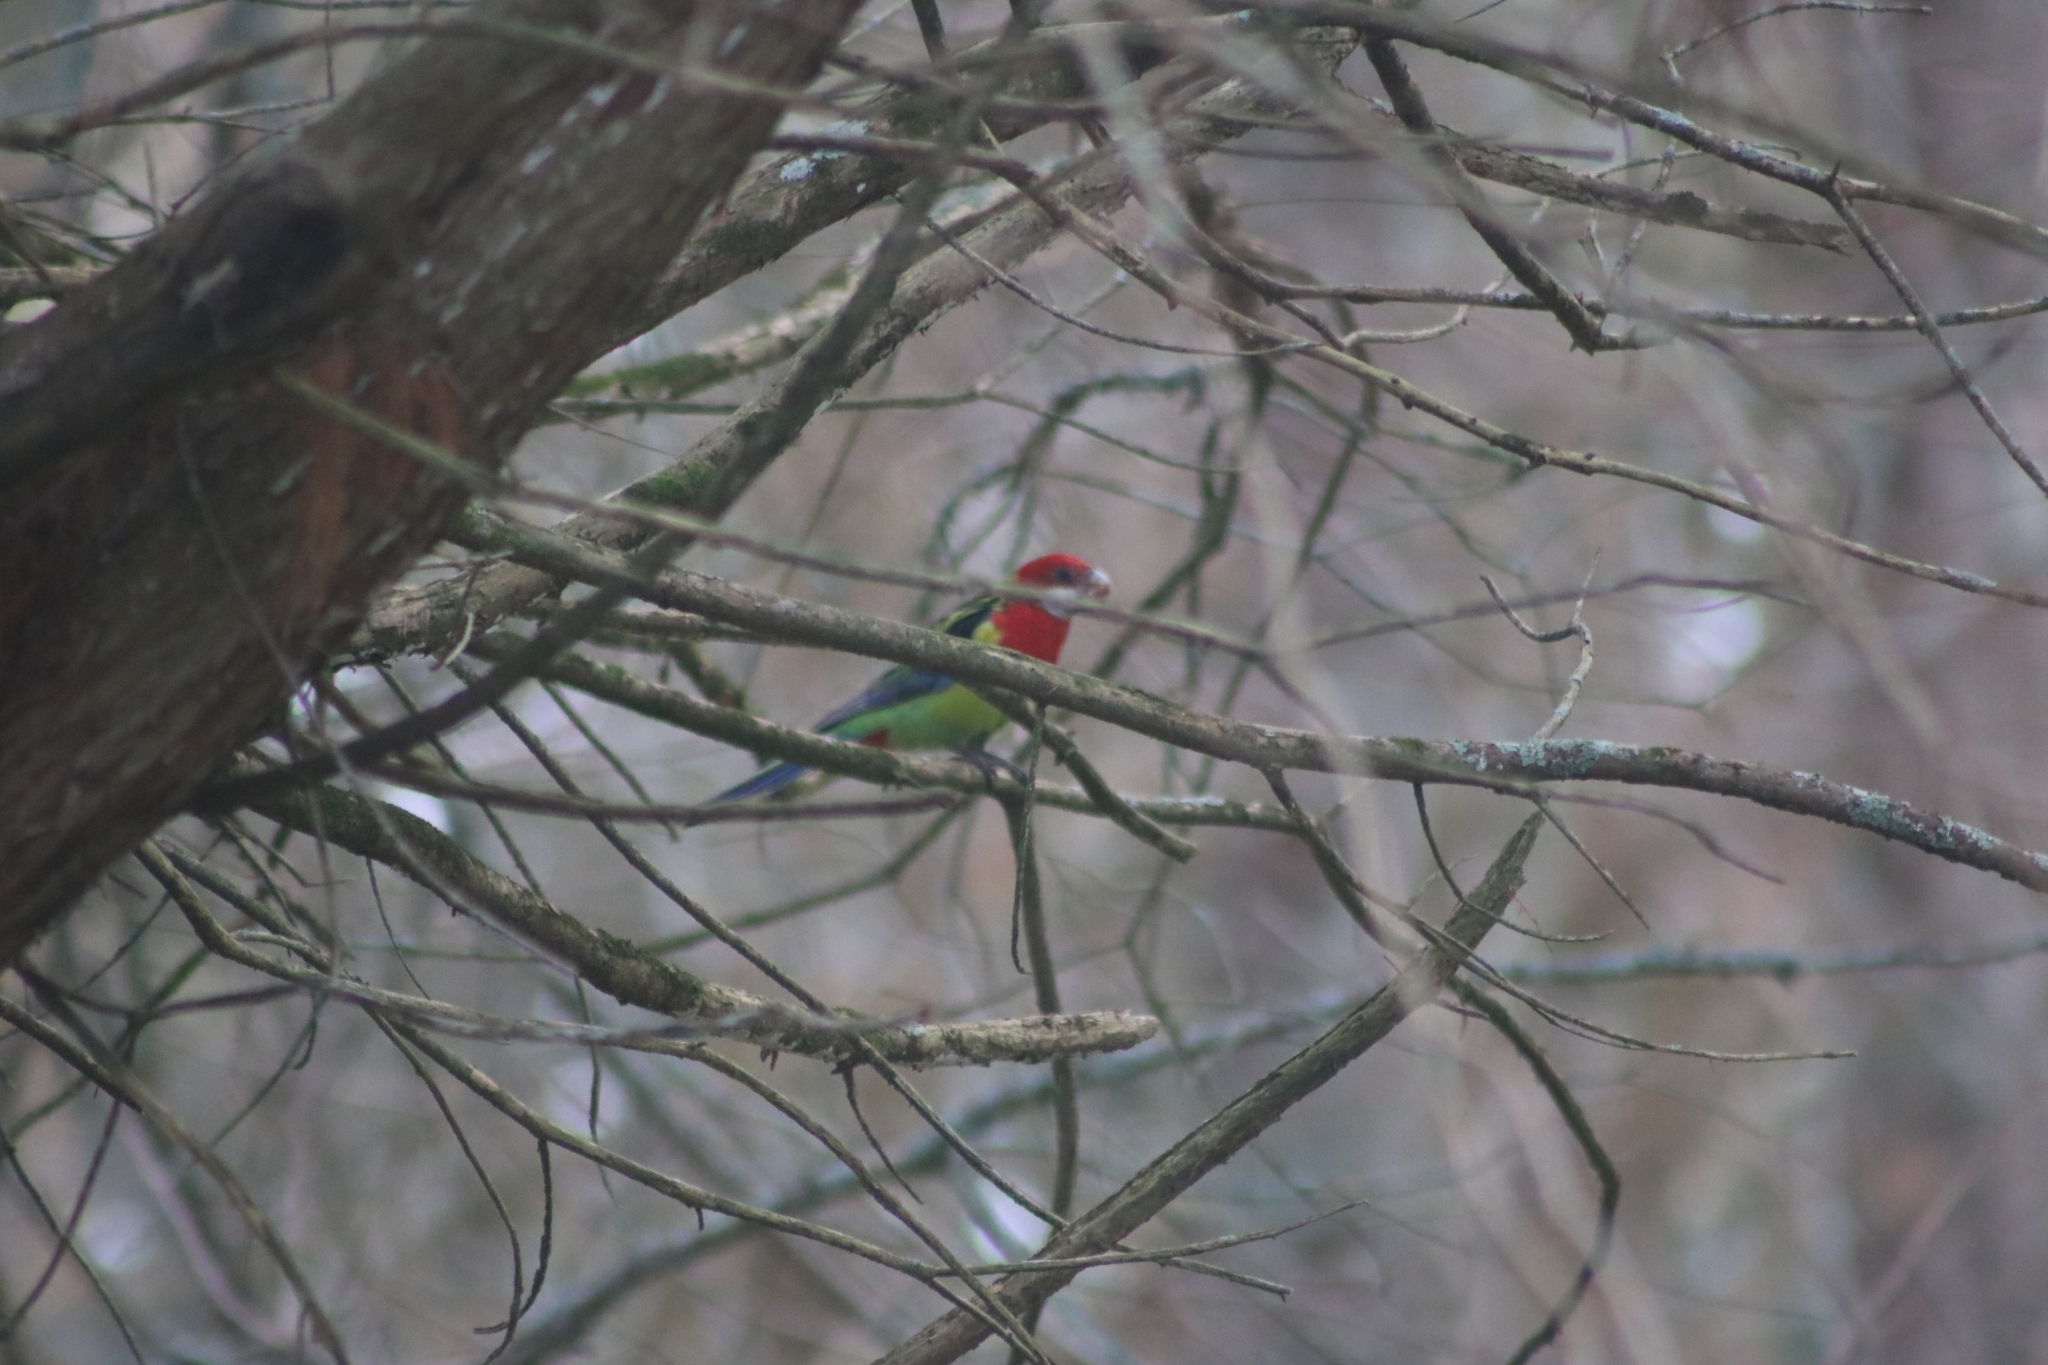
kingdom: Animalia
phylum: Chordata
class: Aves
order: Psittaciformes
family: Psittacidae
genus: Platycercus
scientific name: Platycercus eximius
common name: Eastern rosella
